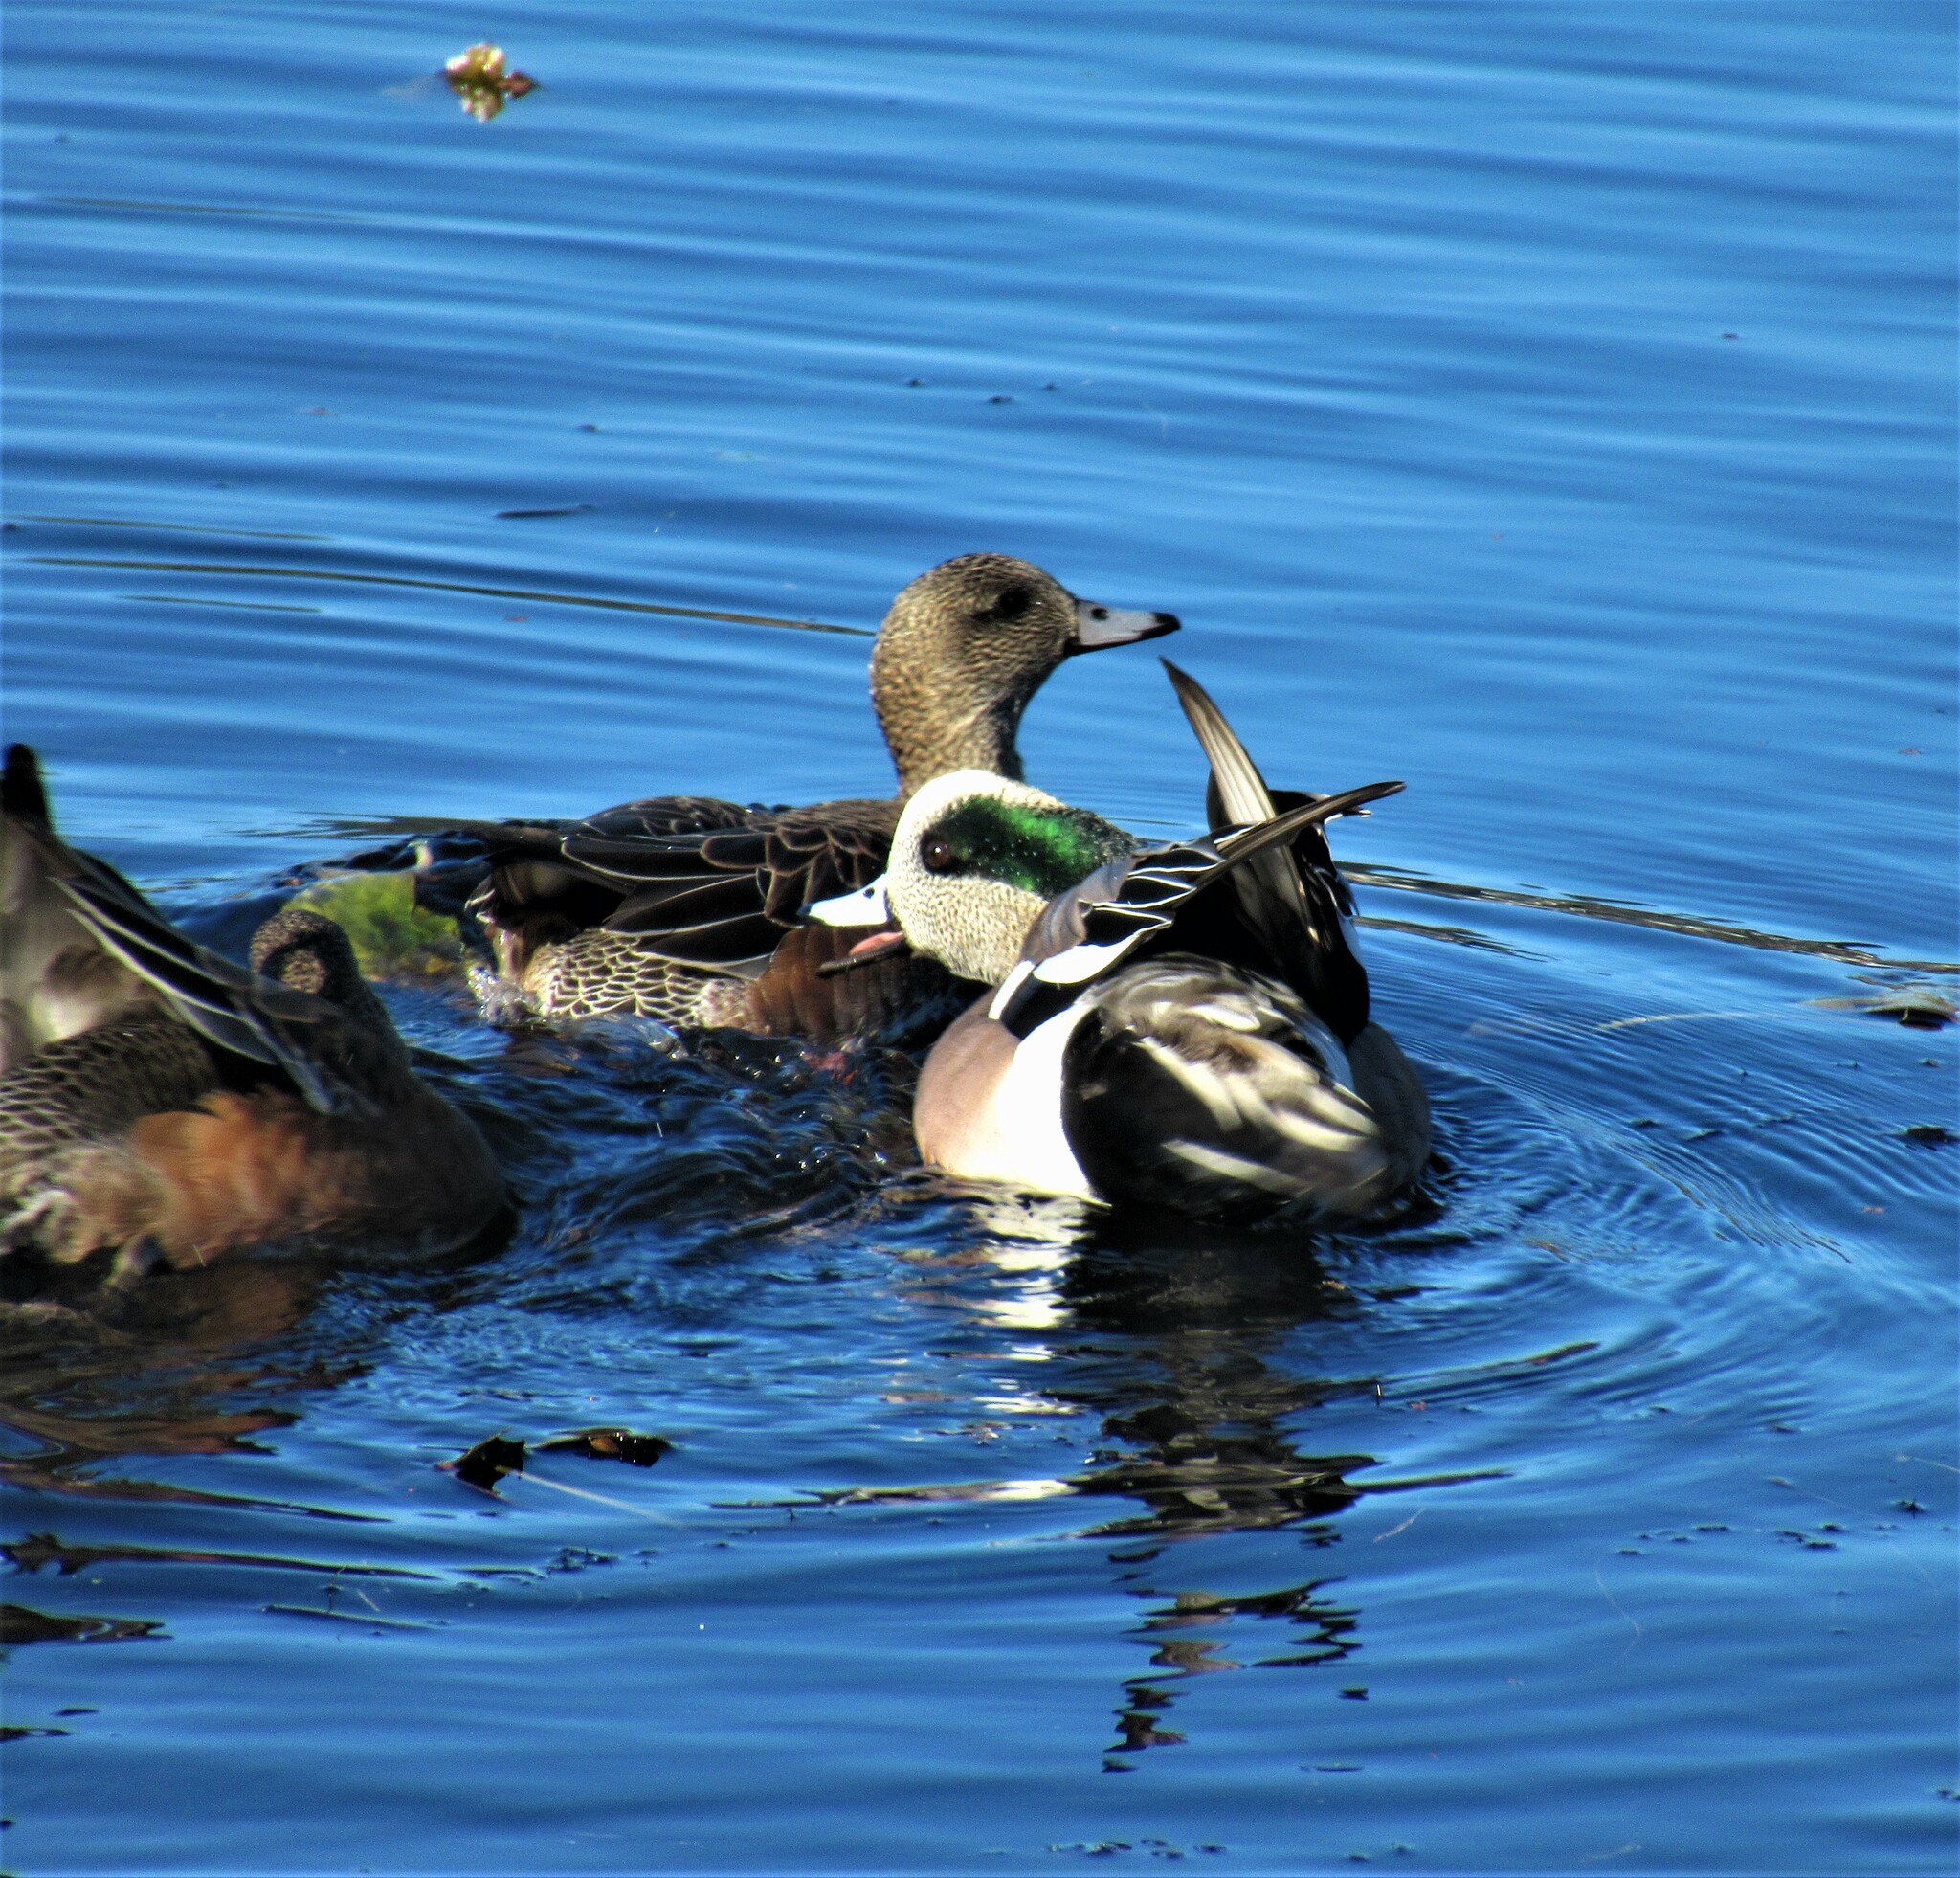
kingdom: Animalia
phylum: Chordata
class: Aves
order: Anseriformes
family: Anatidae
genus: Mareca
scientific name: Mareca americana
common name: American wigeon
